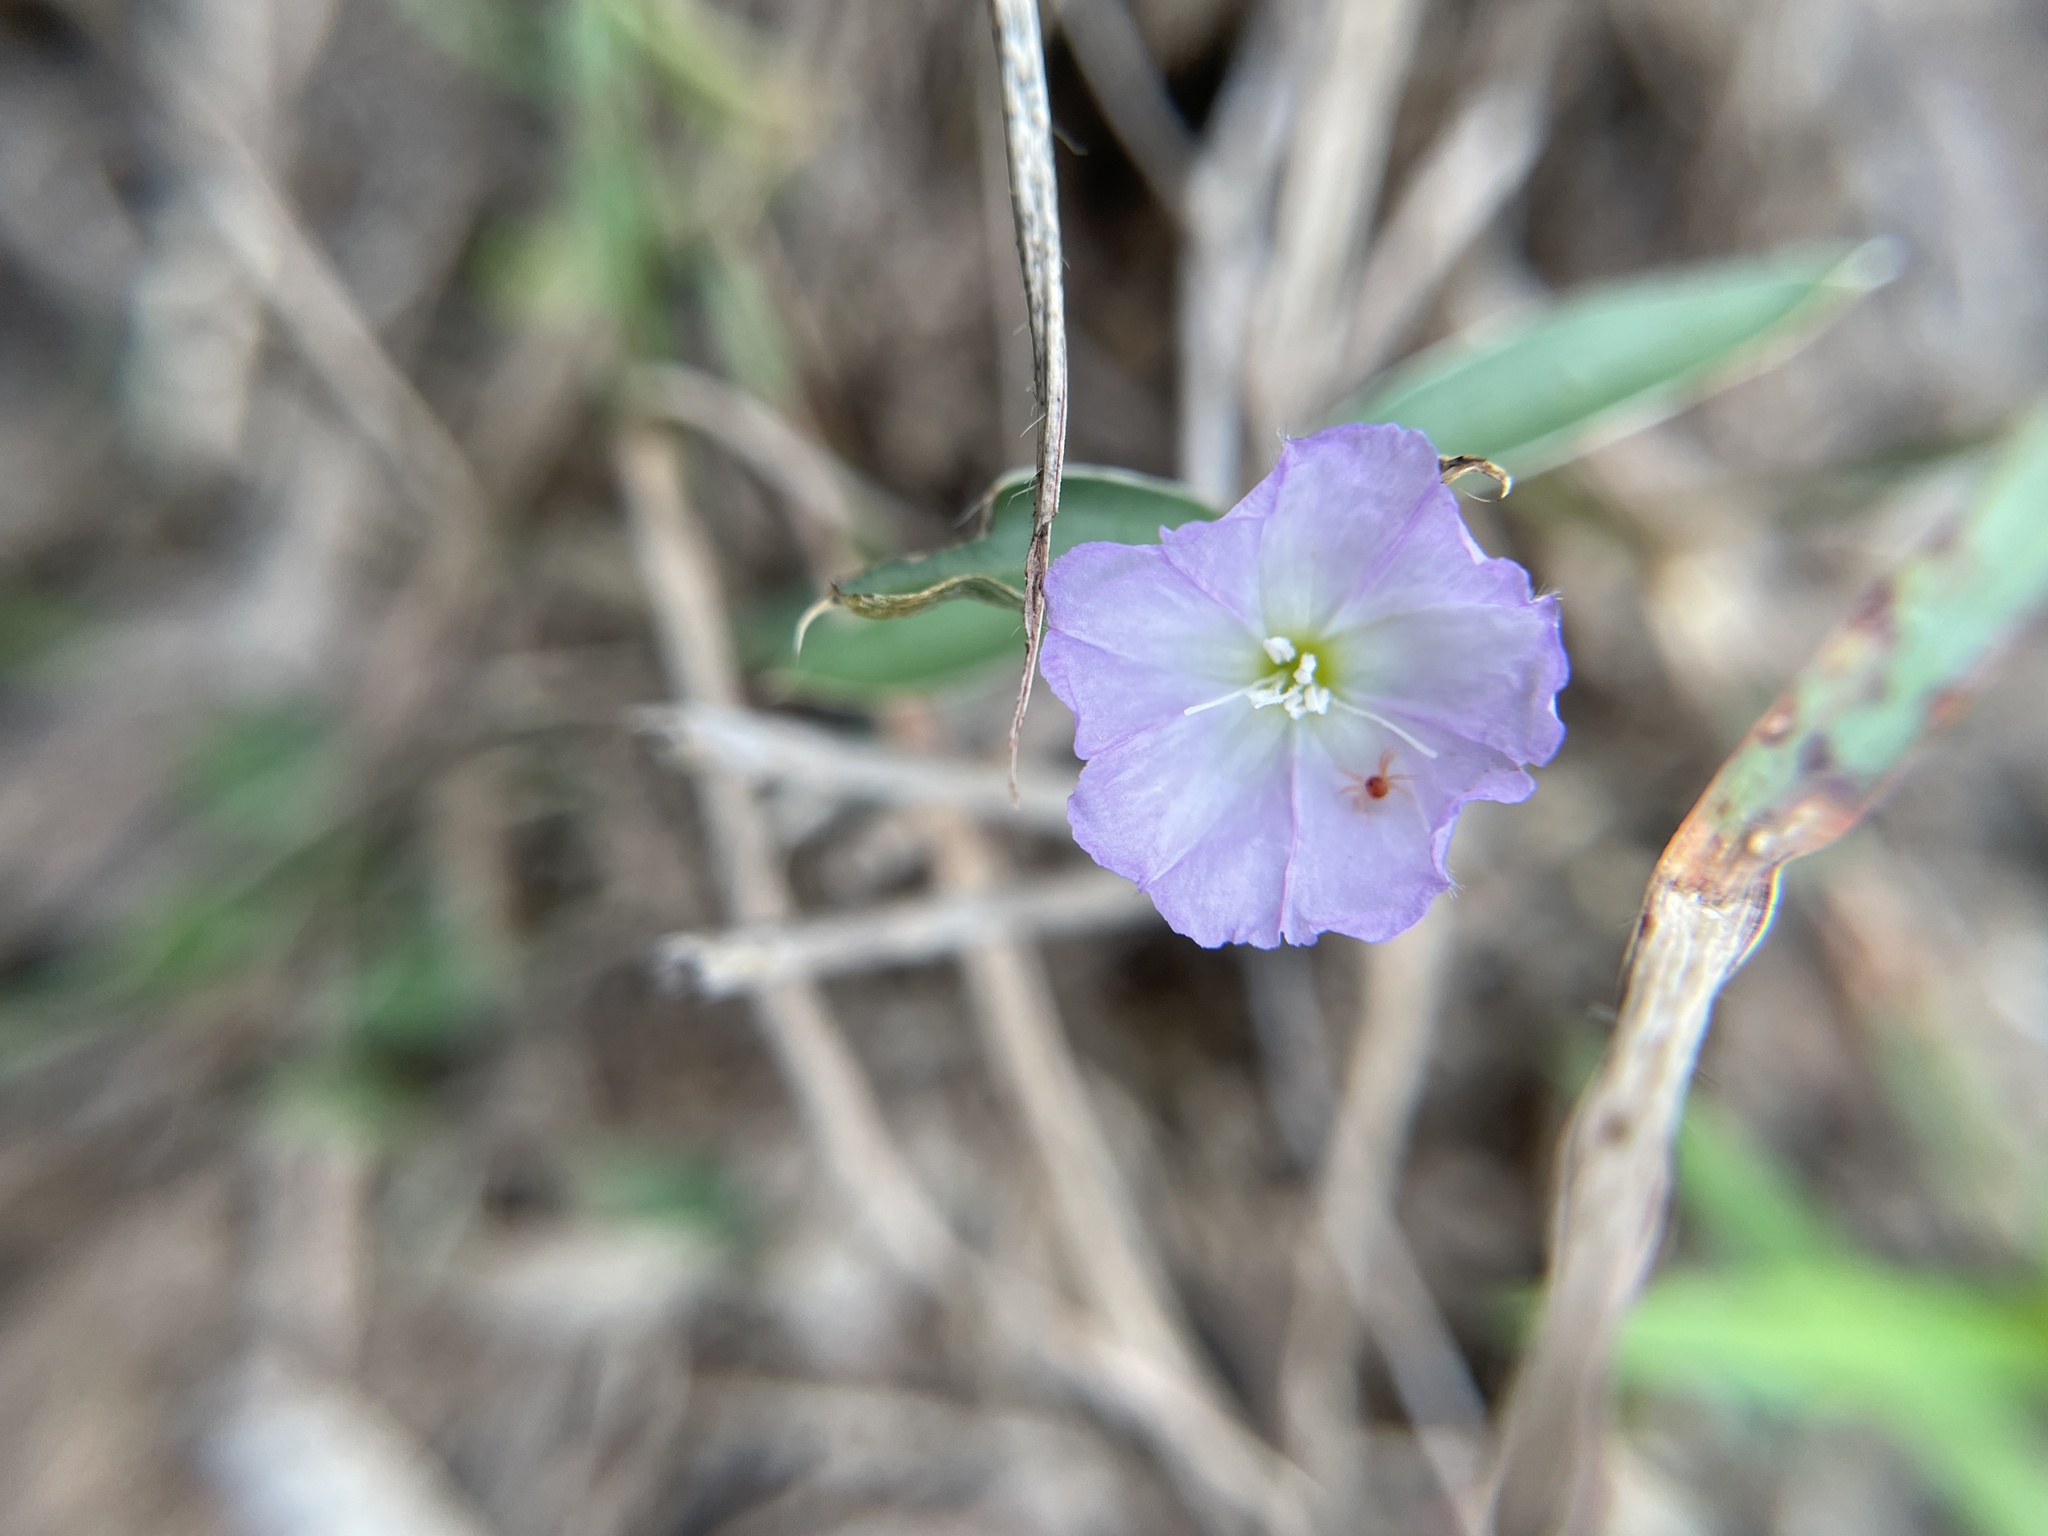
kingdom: Plantae
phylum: Tracheophyta
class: Magnoliopsida
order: Solanales
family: Convolvulaceae
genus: Evolvulus
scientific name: Evolvulus sericeus
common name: Blue dots
